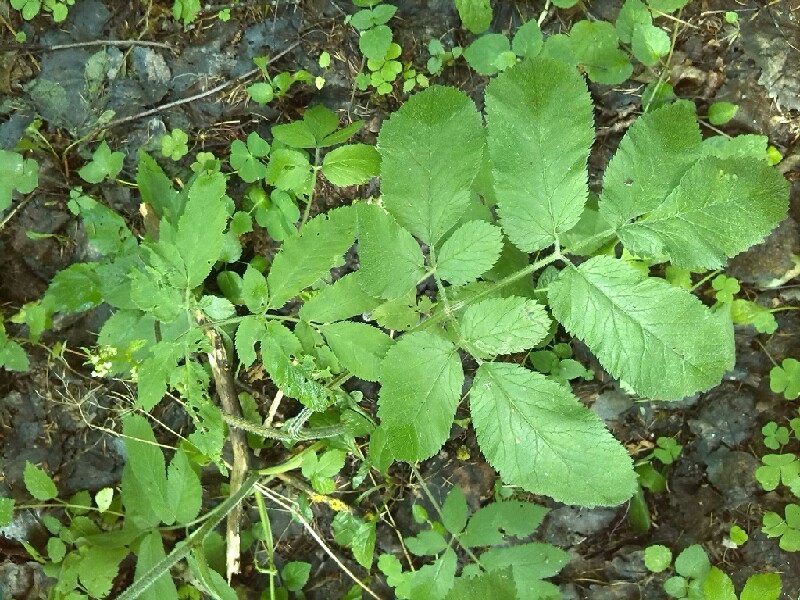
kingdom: Plantae
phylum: Tracheophyta
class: Magnoliopsida
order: Apiales
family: Apiaceae
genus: Chaerophyllum
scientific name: Chaerophyllum aromaticum
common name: Broadleaf chervil
